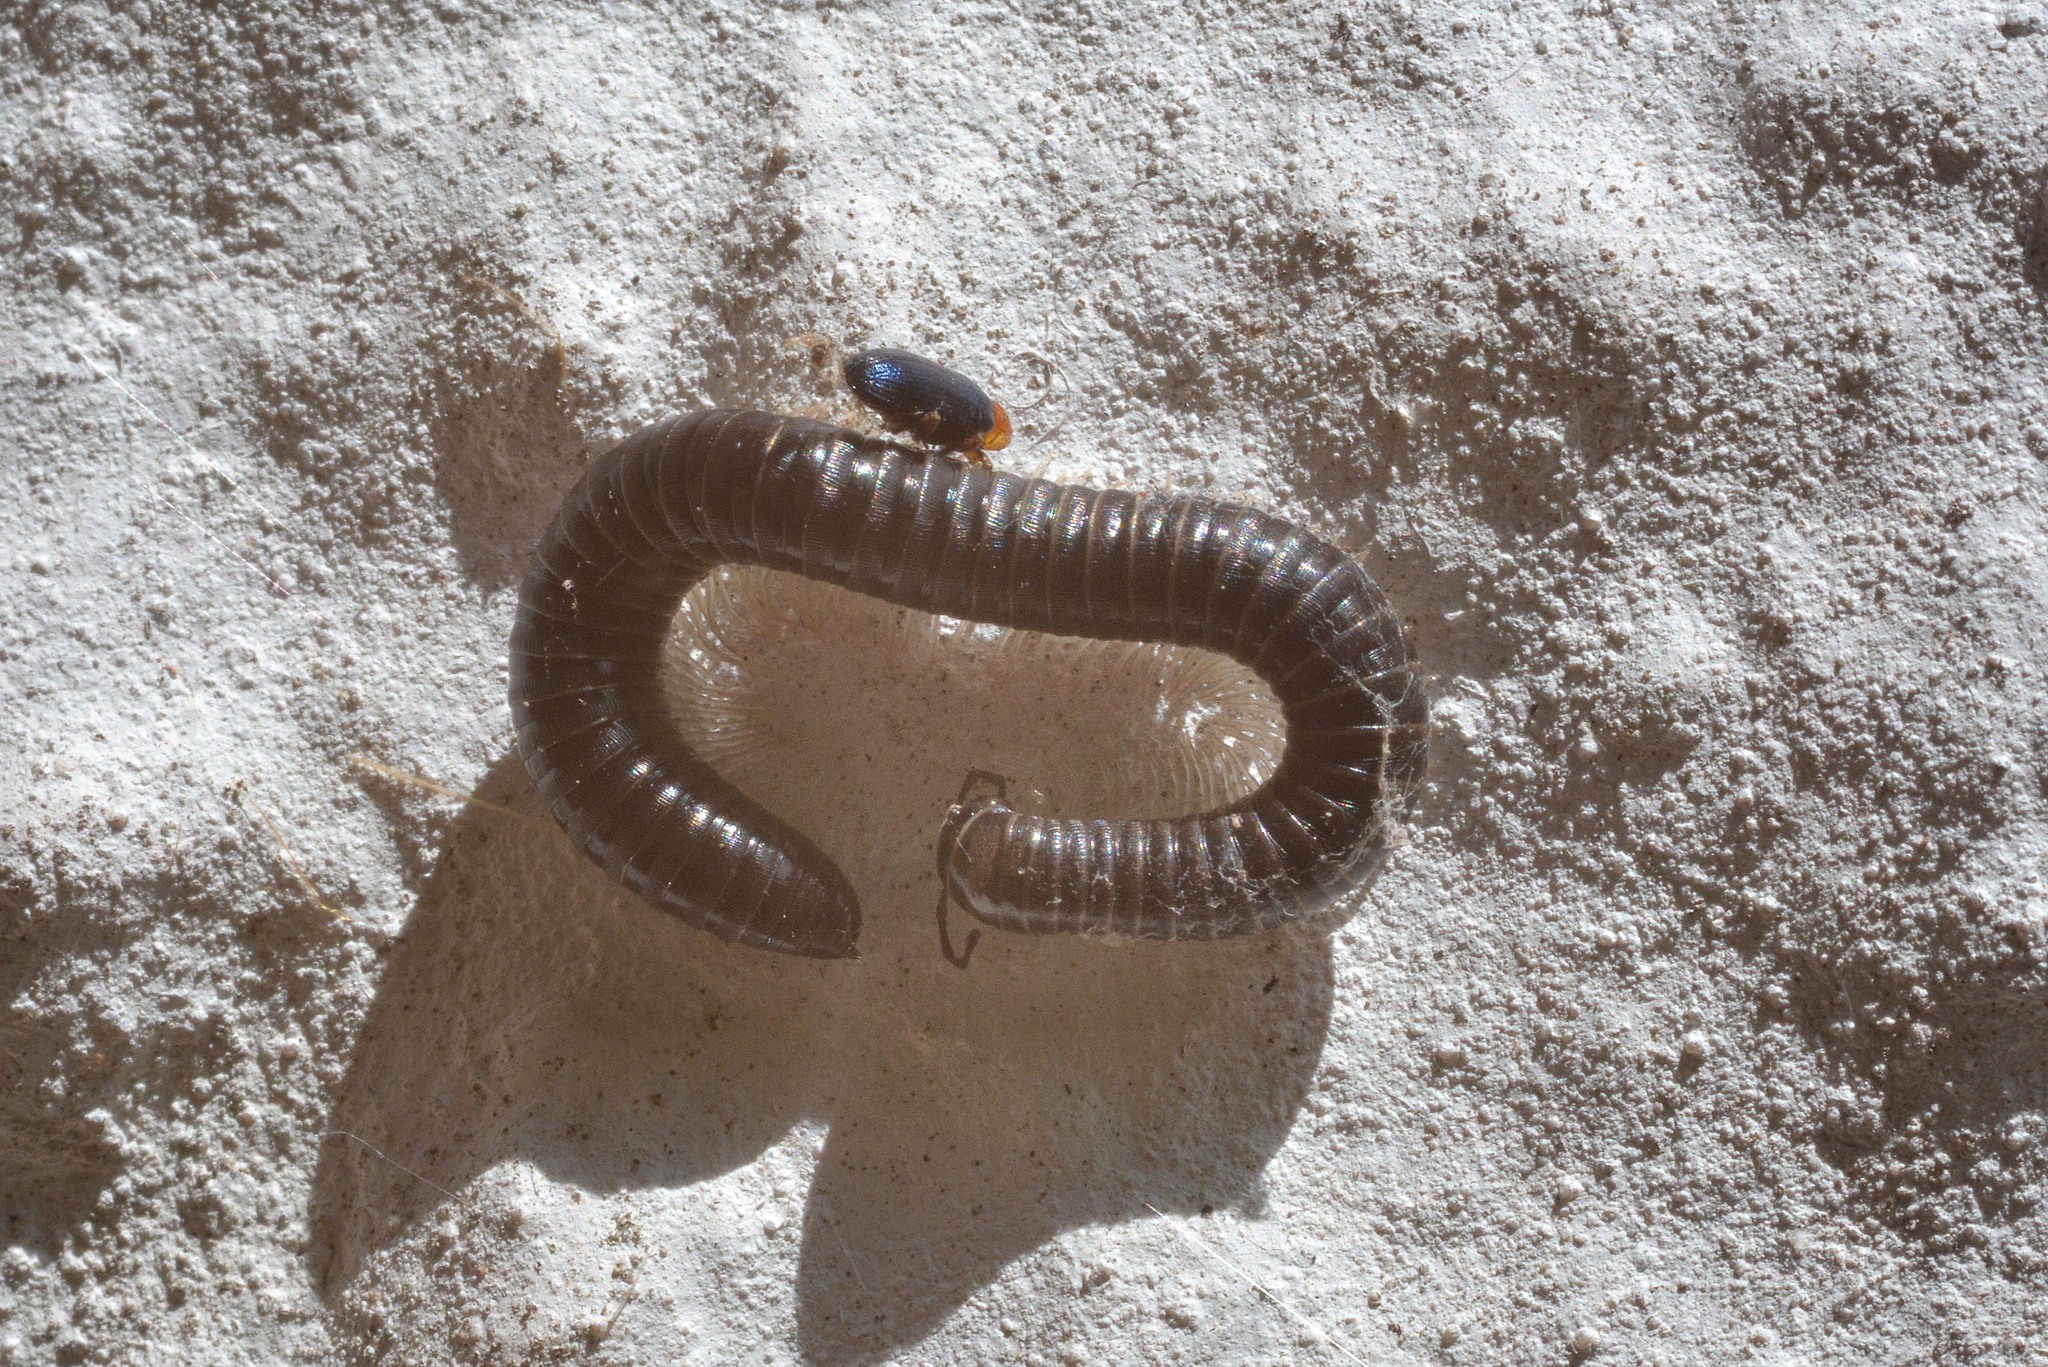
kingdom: Animalia
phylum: Arthropoda
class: Diplopoda
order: Julida
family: Julidae
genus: Tachypodoiulus
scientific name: Tachypodoiulus niger
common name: White-legged snake millipede
